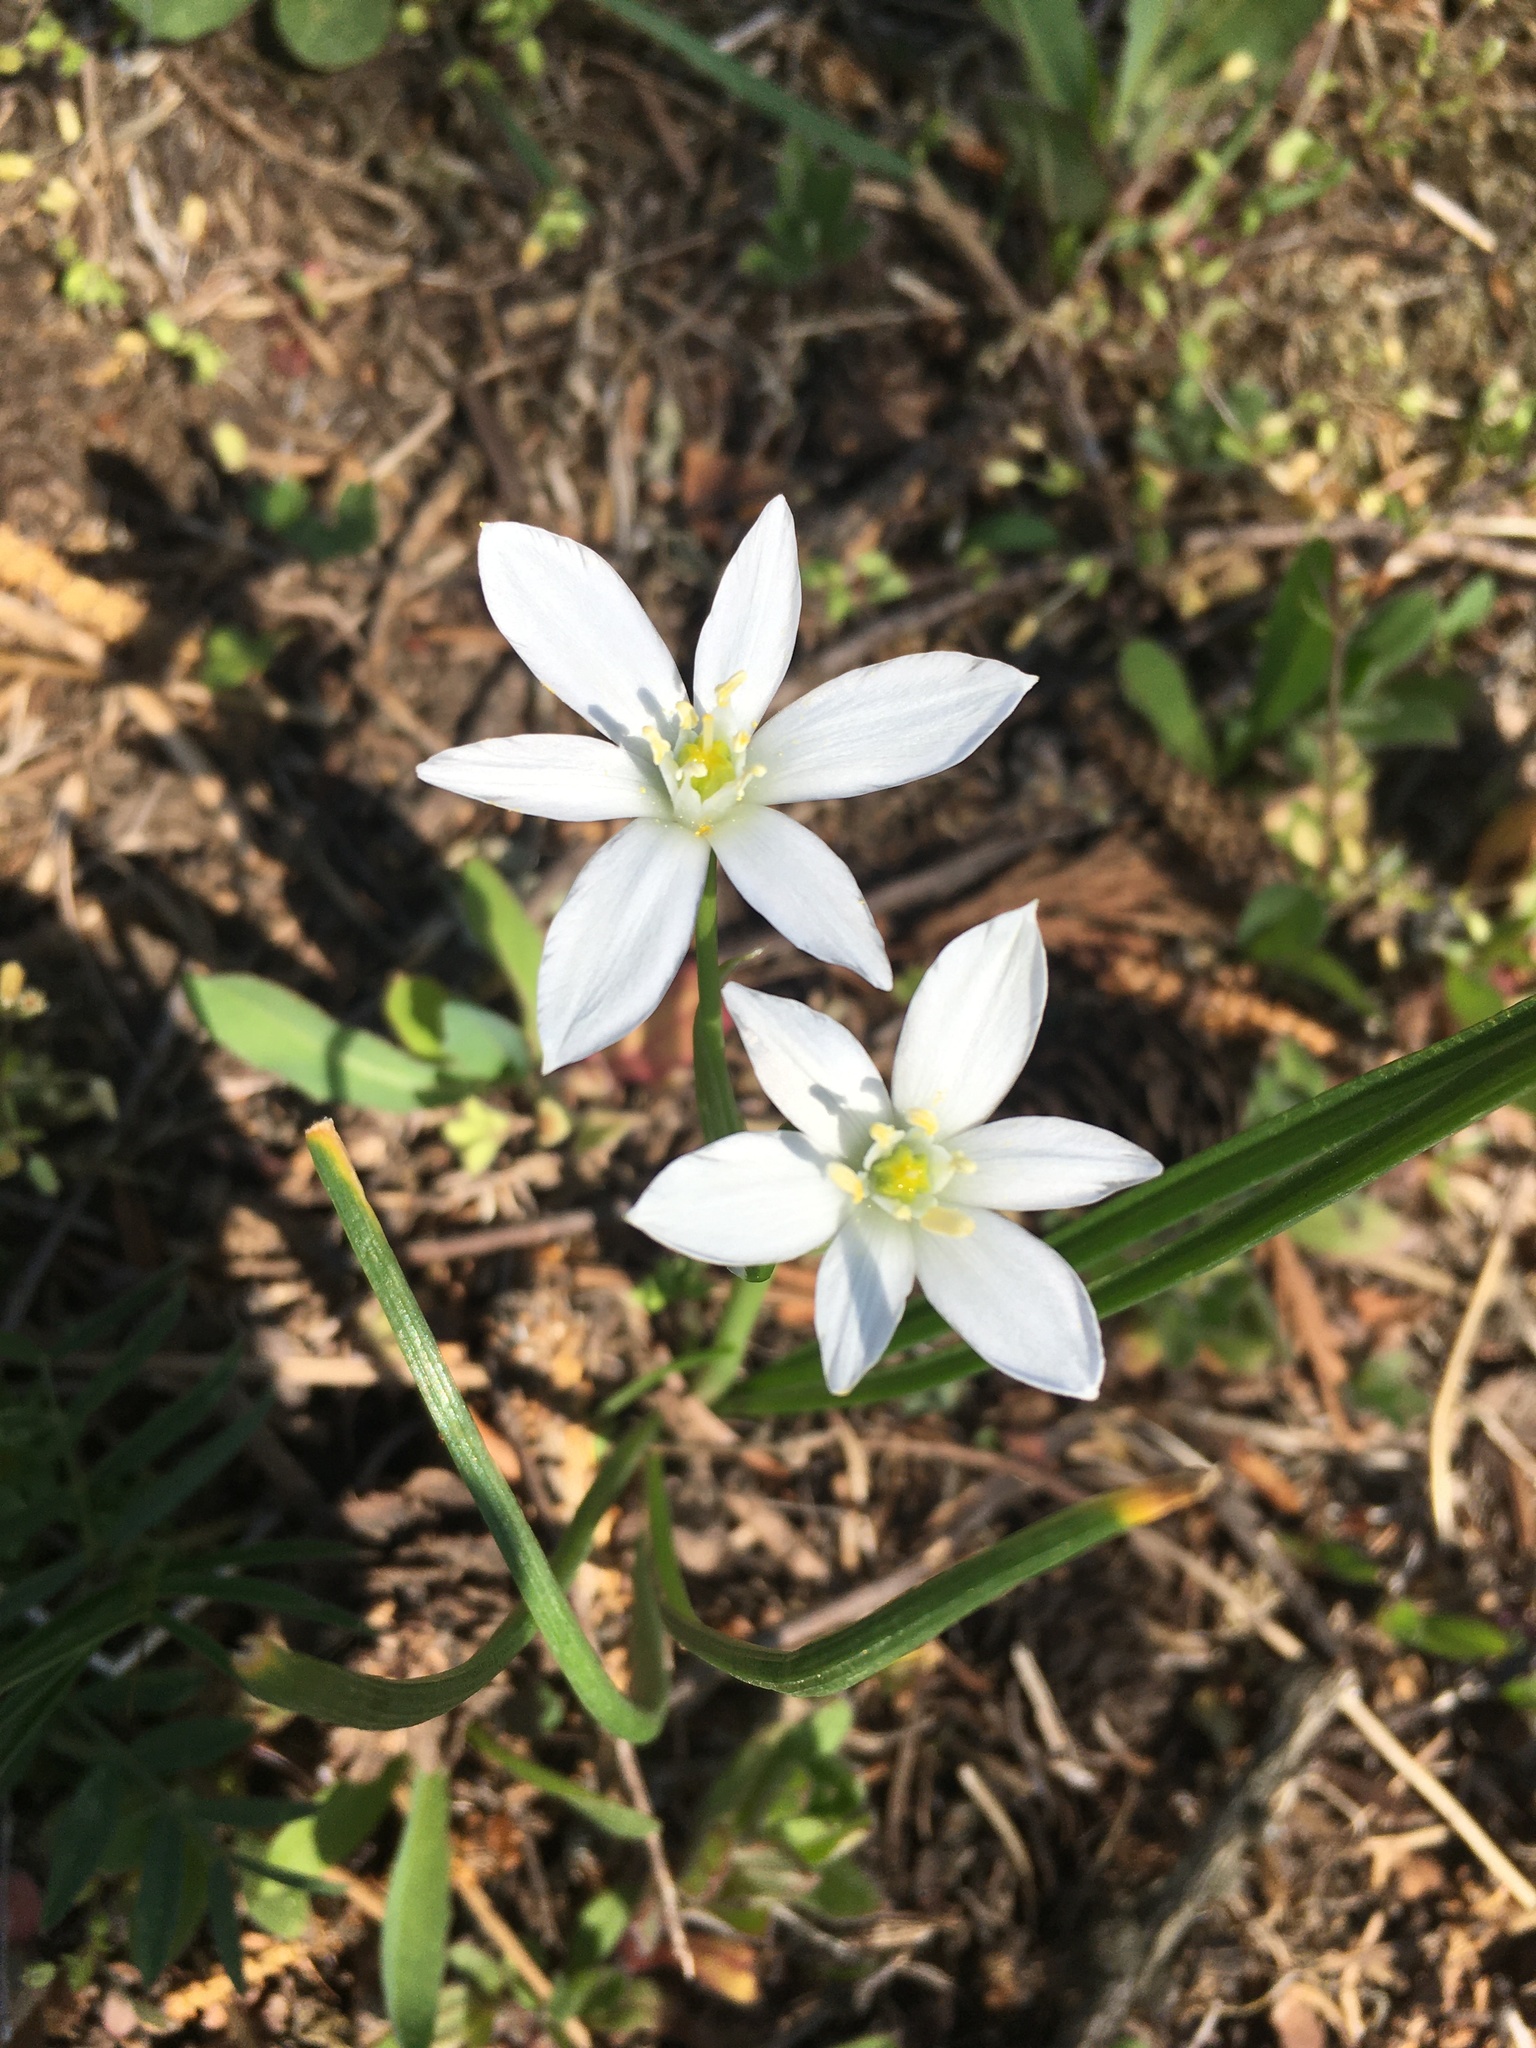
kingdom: Plantae
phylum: Tracheophyta
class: Liliopsida
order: Asparagales
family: Asparagaceae
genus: Ornithogalum
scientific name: Ornithogalum umbellatum
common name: Garden star-of-bethlehem
